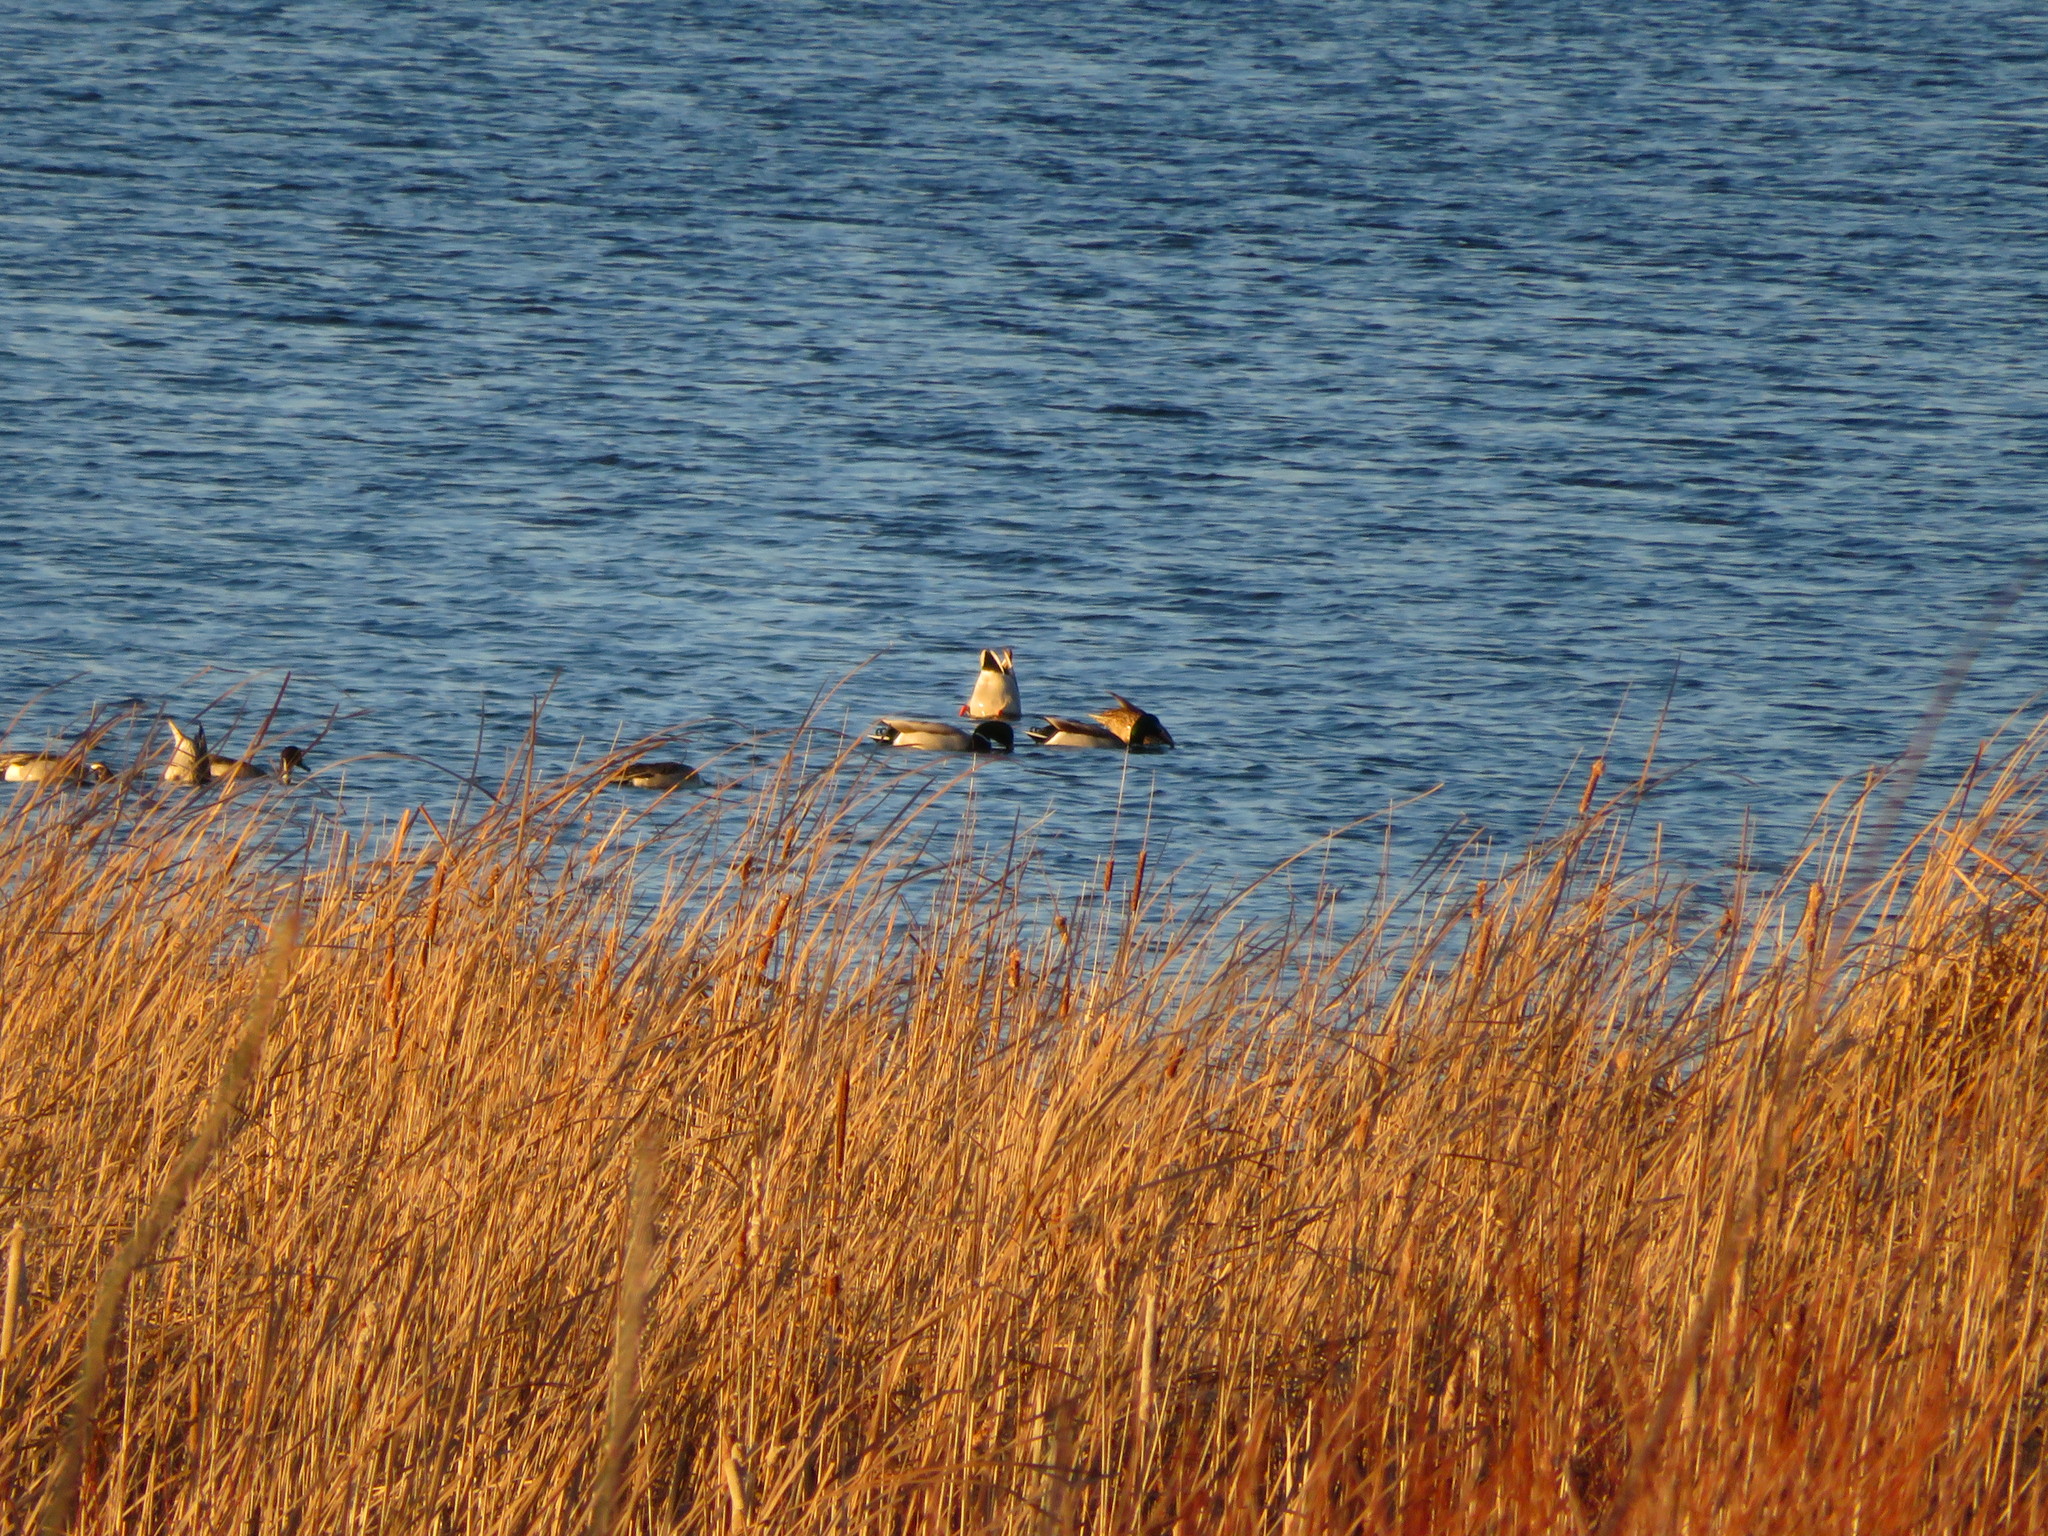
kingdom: Animalia
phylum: Chordata
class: Aves
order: Anseriformes
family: Anatidae
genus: Anas
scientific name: Anas platyrhynchos
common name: Mallard
